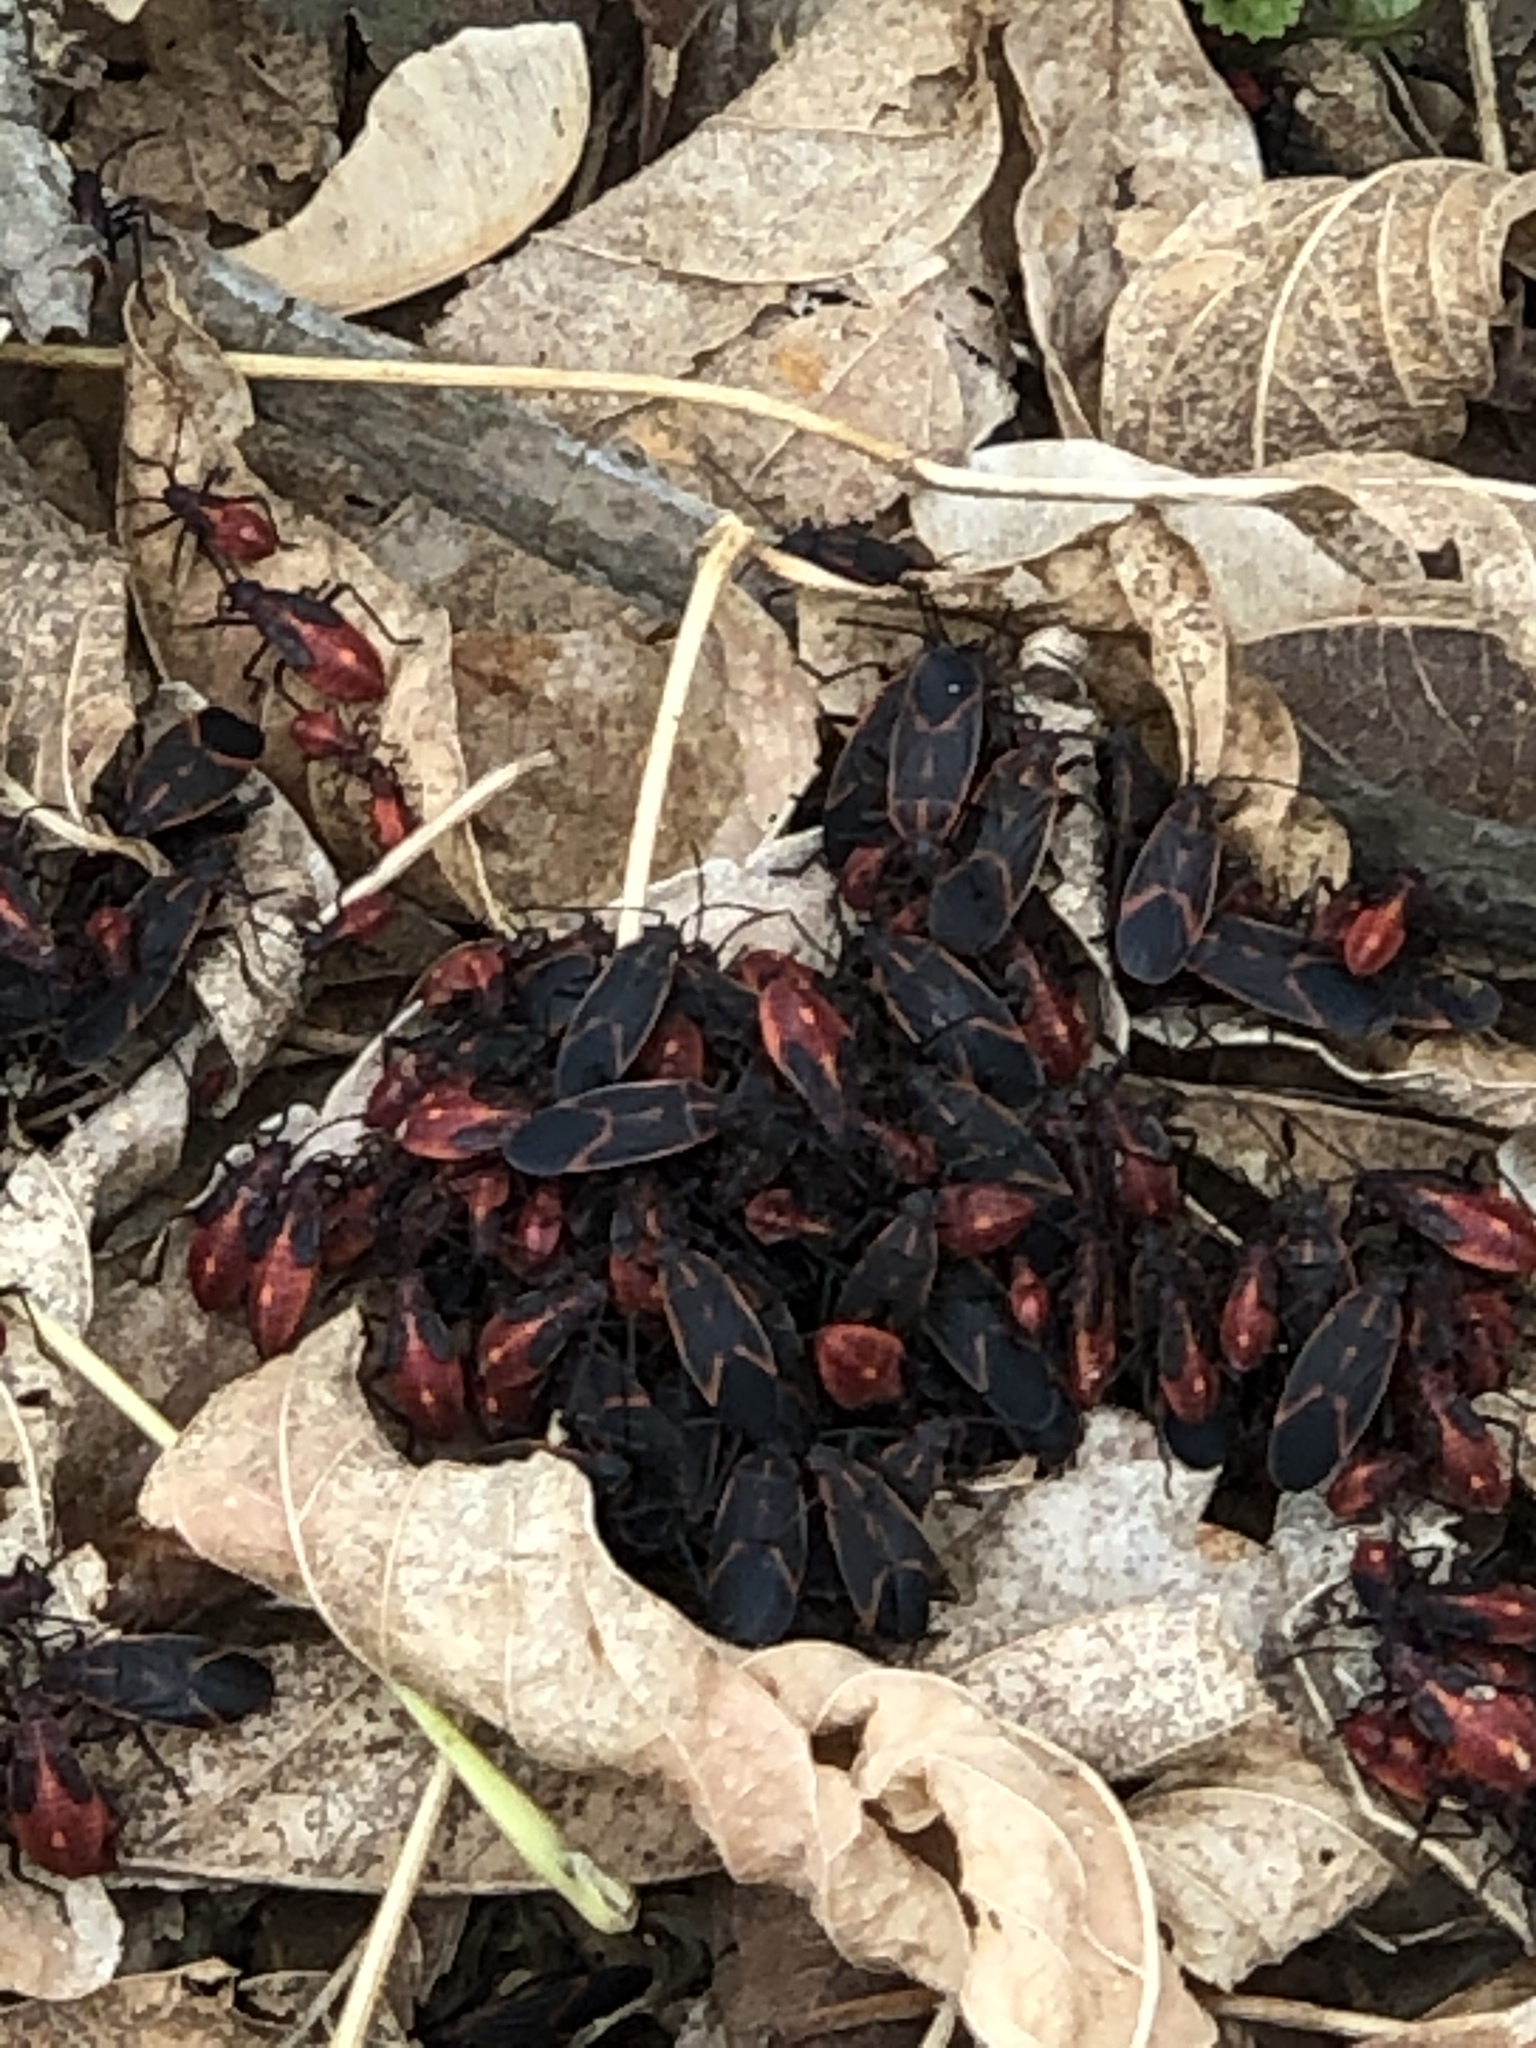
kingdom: Animalia
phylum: Arthropoda
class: Insecta
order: Hemiptera
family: Rhopalidae
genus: Boisea
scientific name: Boisea trivittata
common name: Boxelder bug
